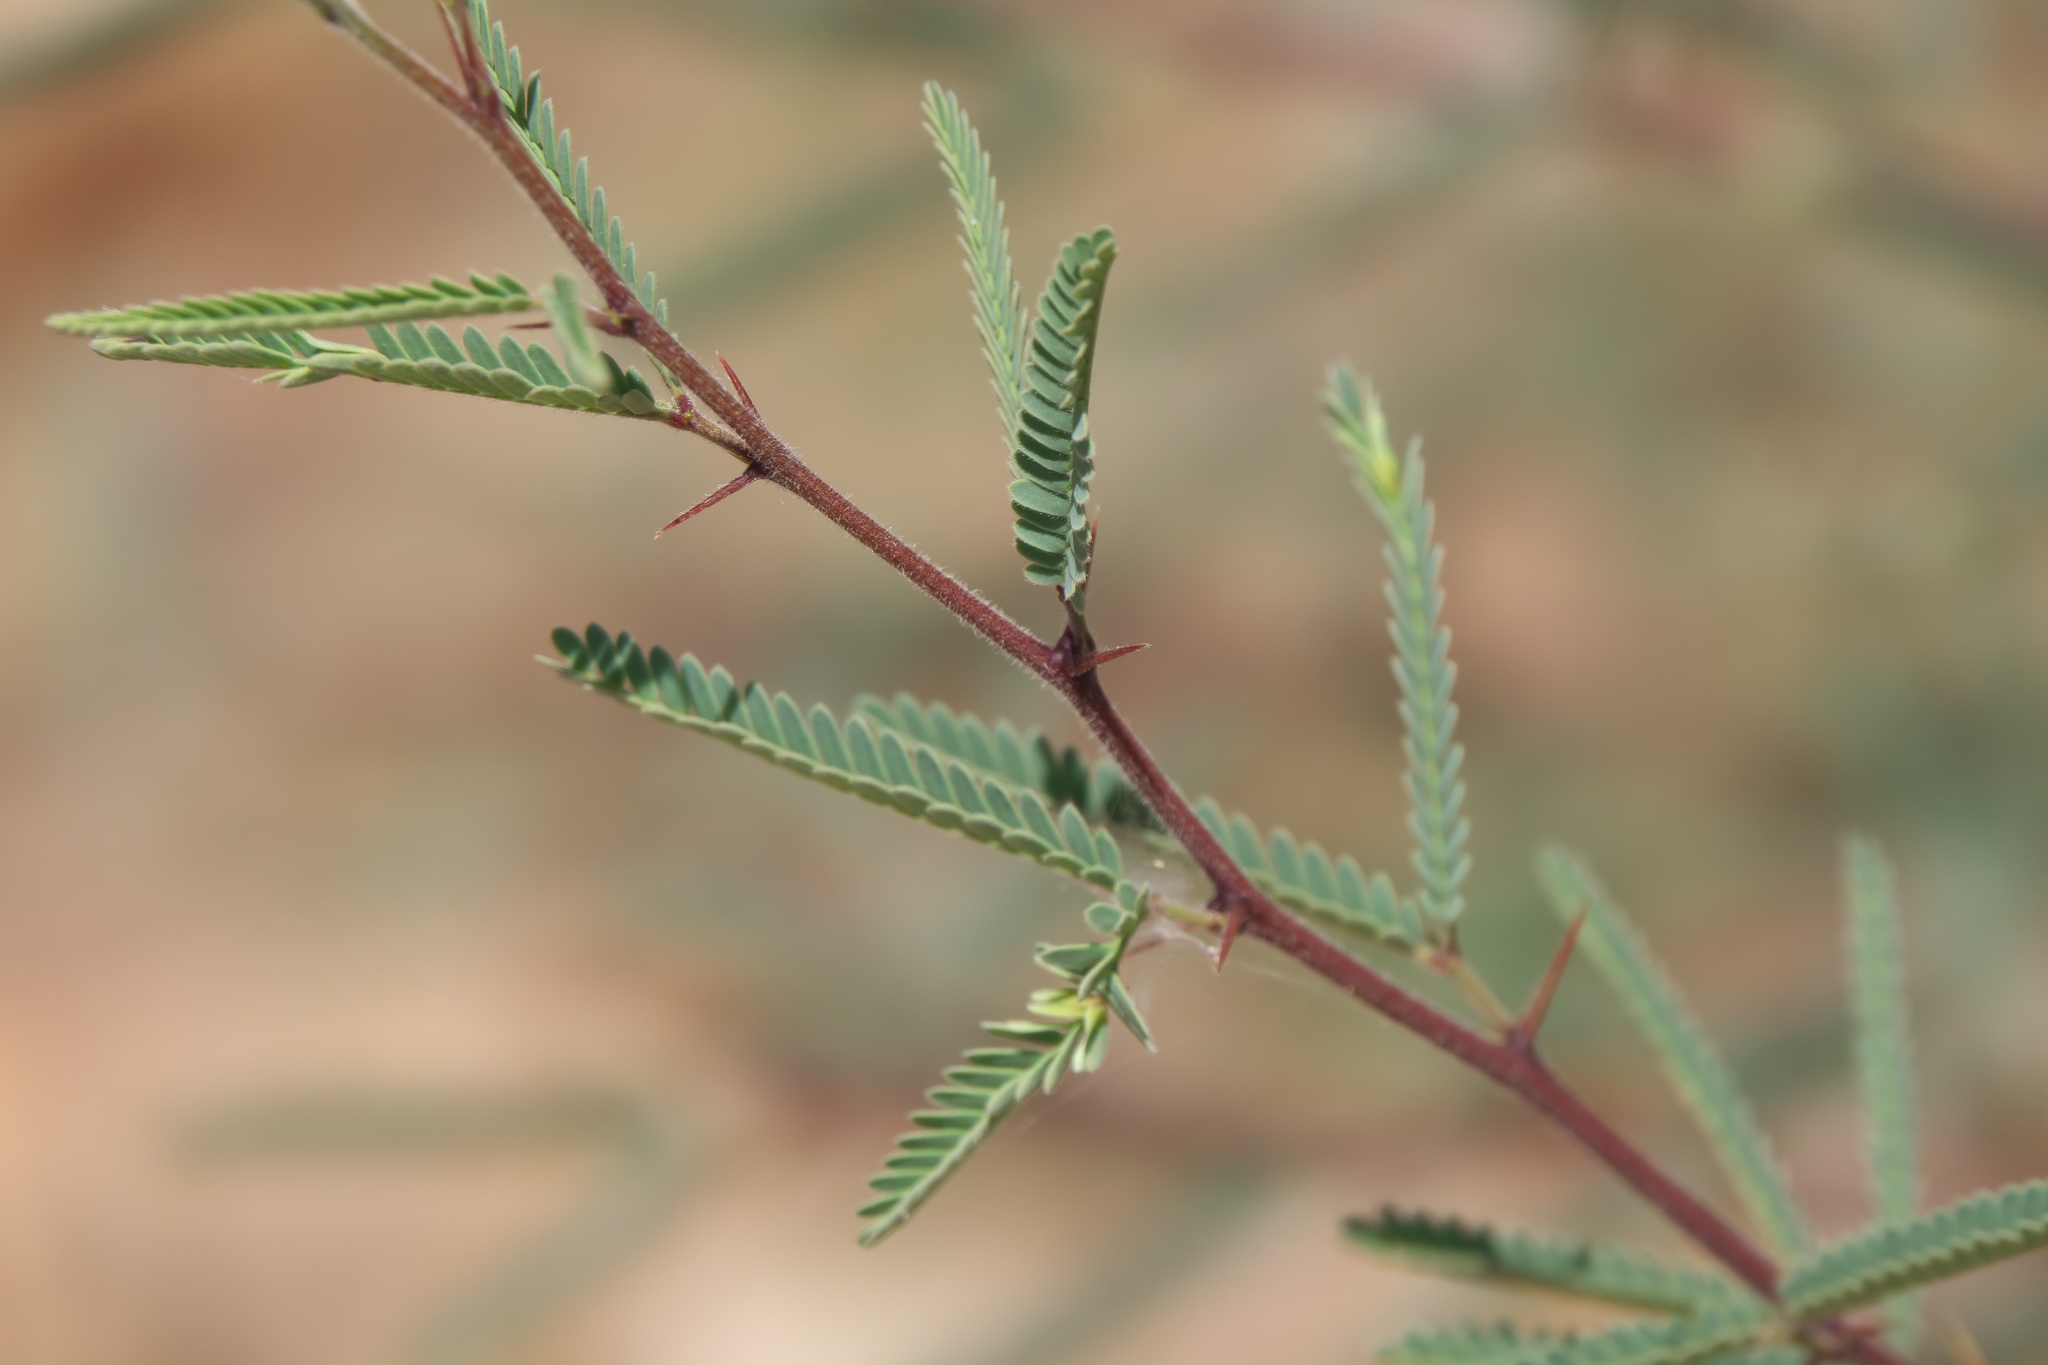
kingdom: Plantae
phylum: Tracheophyta
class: Magnoliopsida
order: Fabales
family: Fabaceae
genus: Prosopis
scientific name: Prosopis velutina
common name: Velvet mesquite
